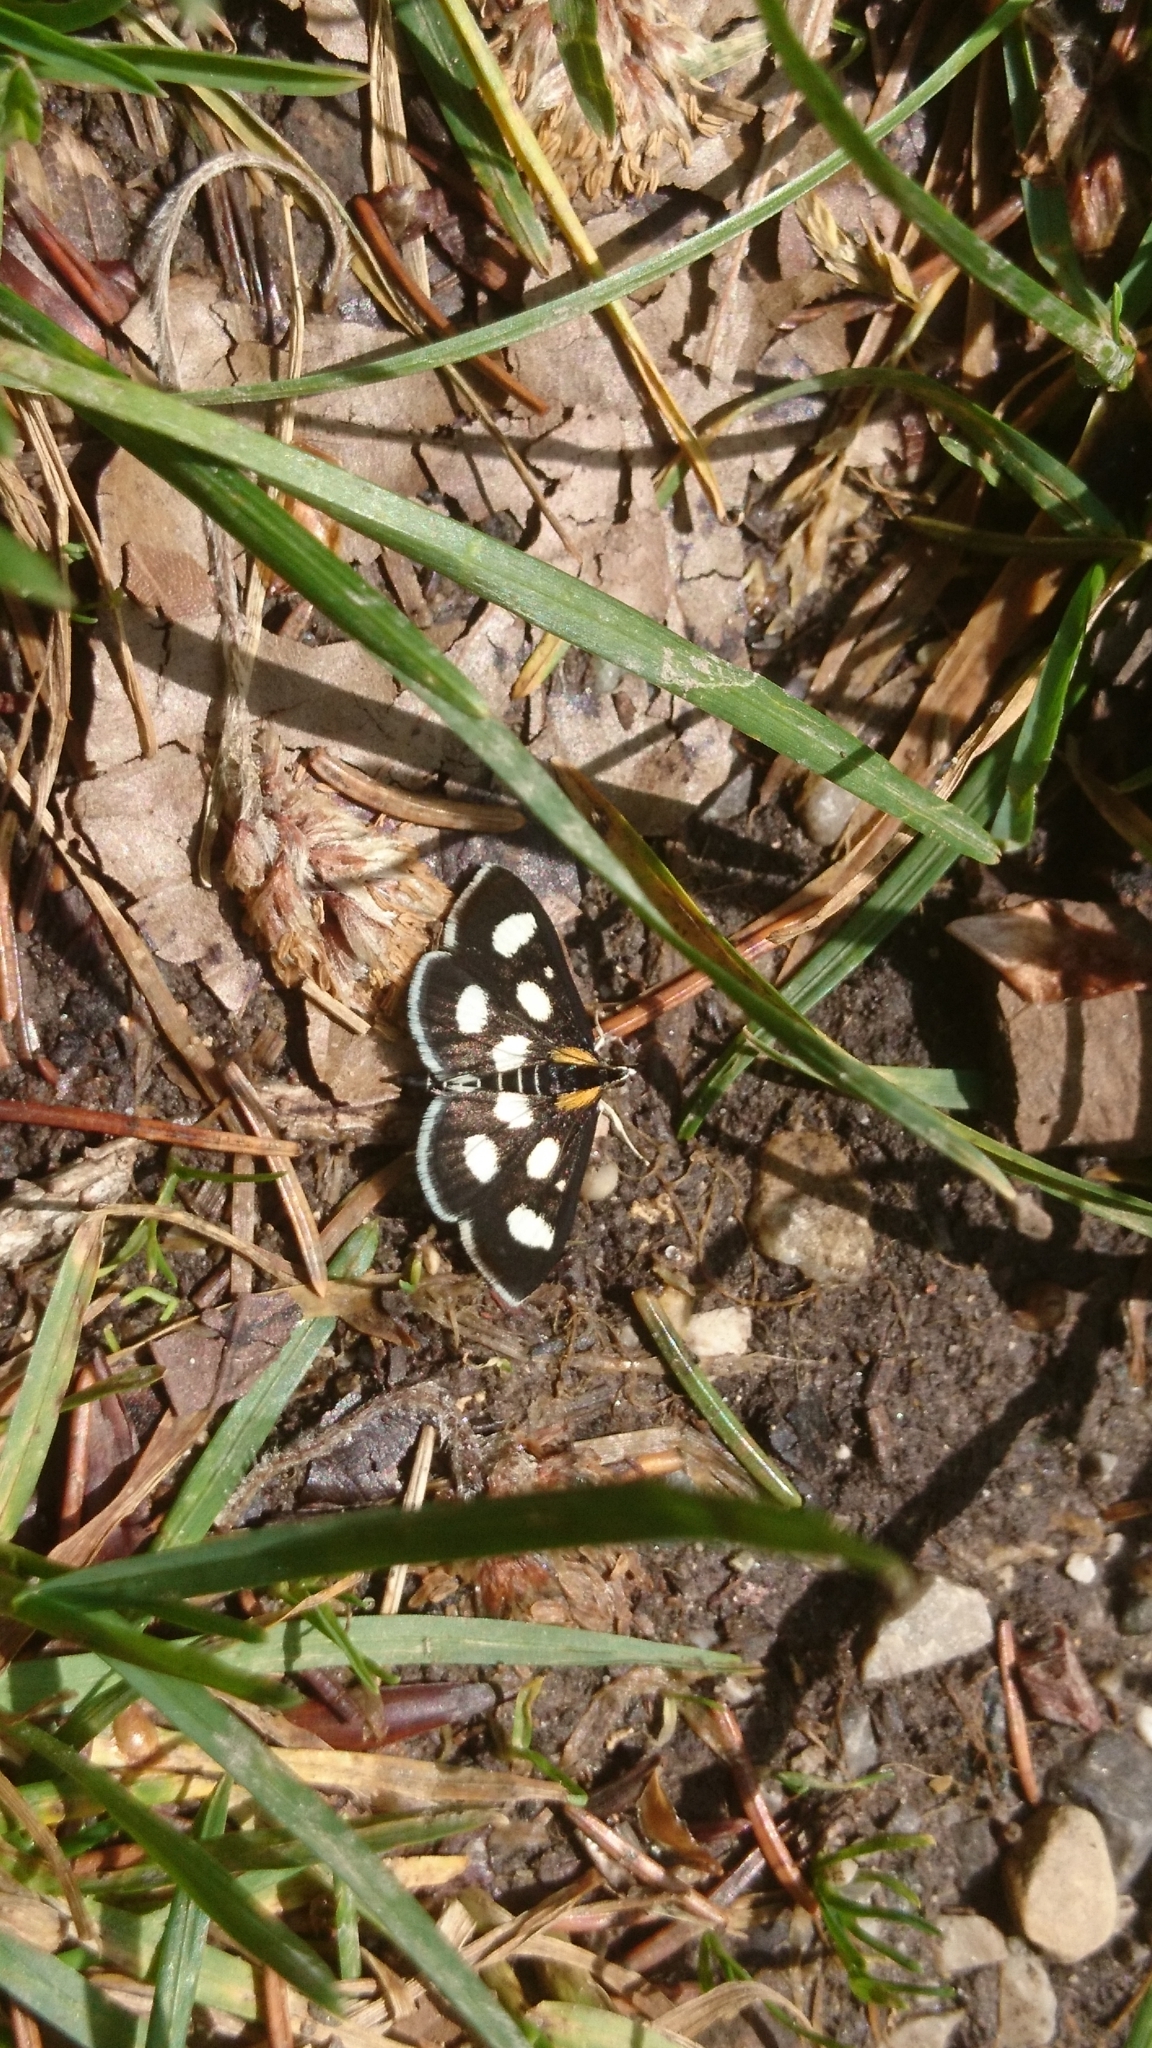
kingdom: Animalia
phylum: Arthropoda
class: Insecta
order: Lepidoptera
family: Crambidae
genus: Anania
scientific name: Anania funebris
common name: White-spotted sable moth
